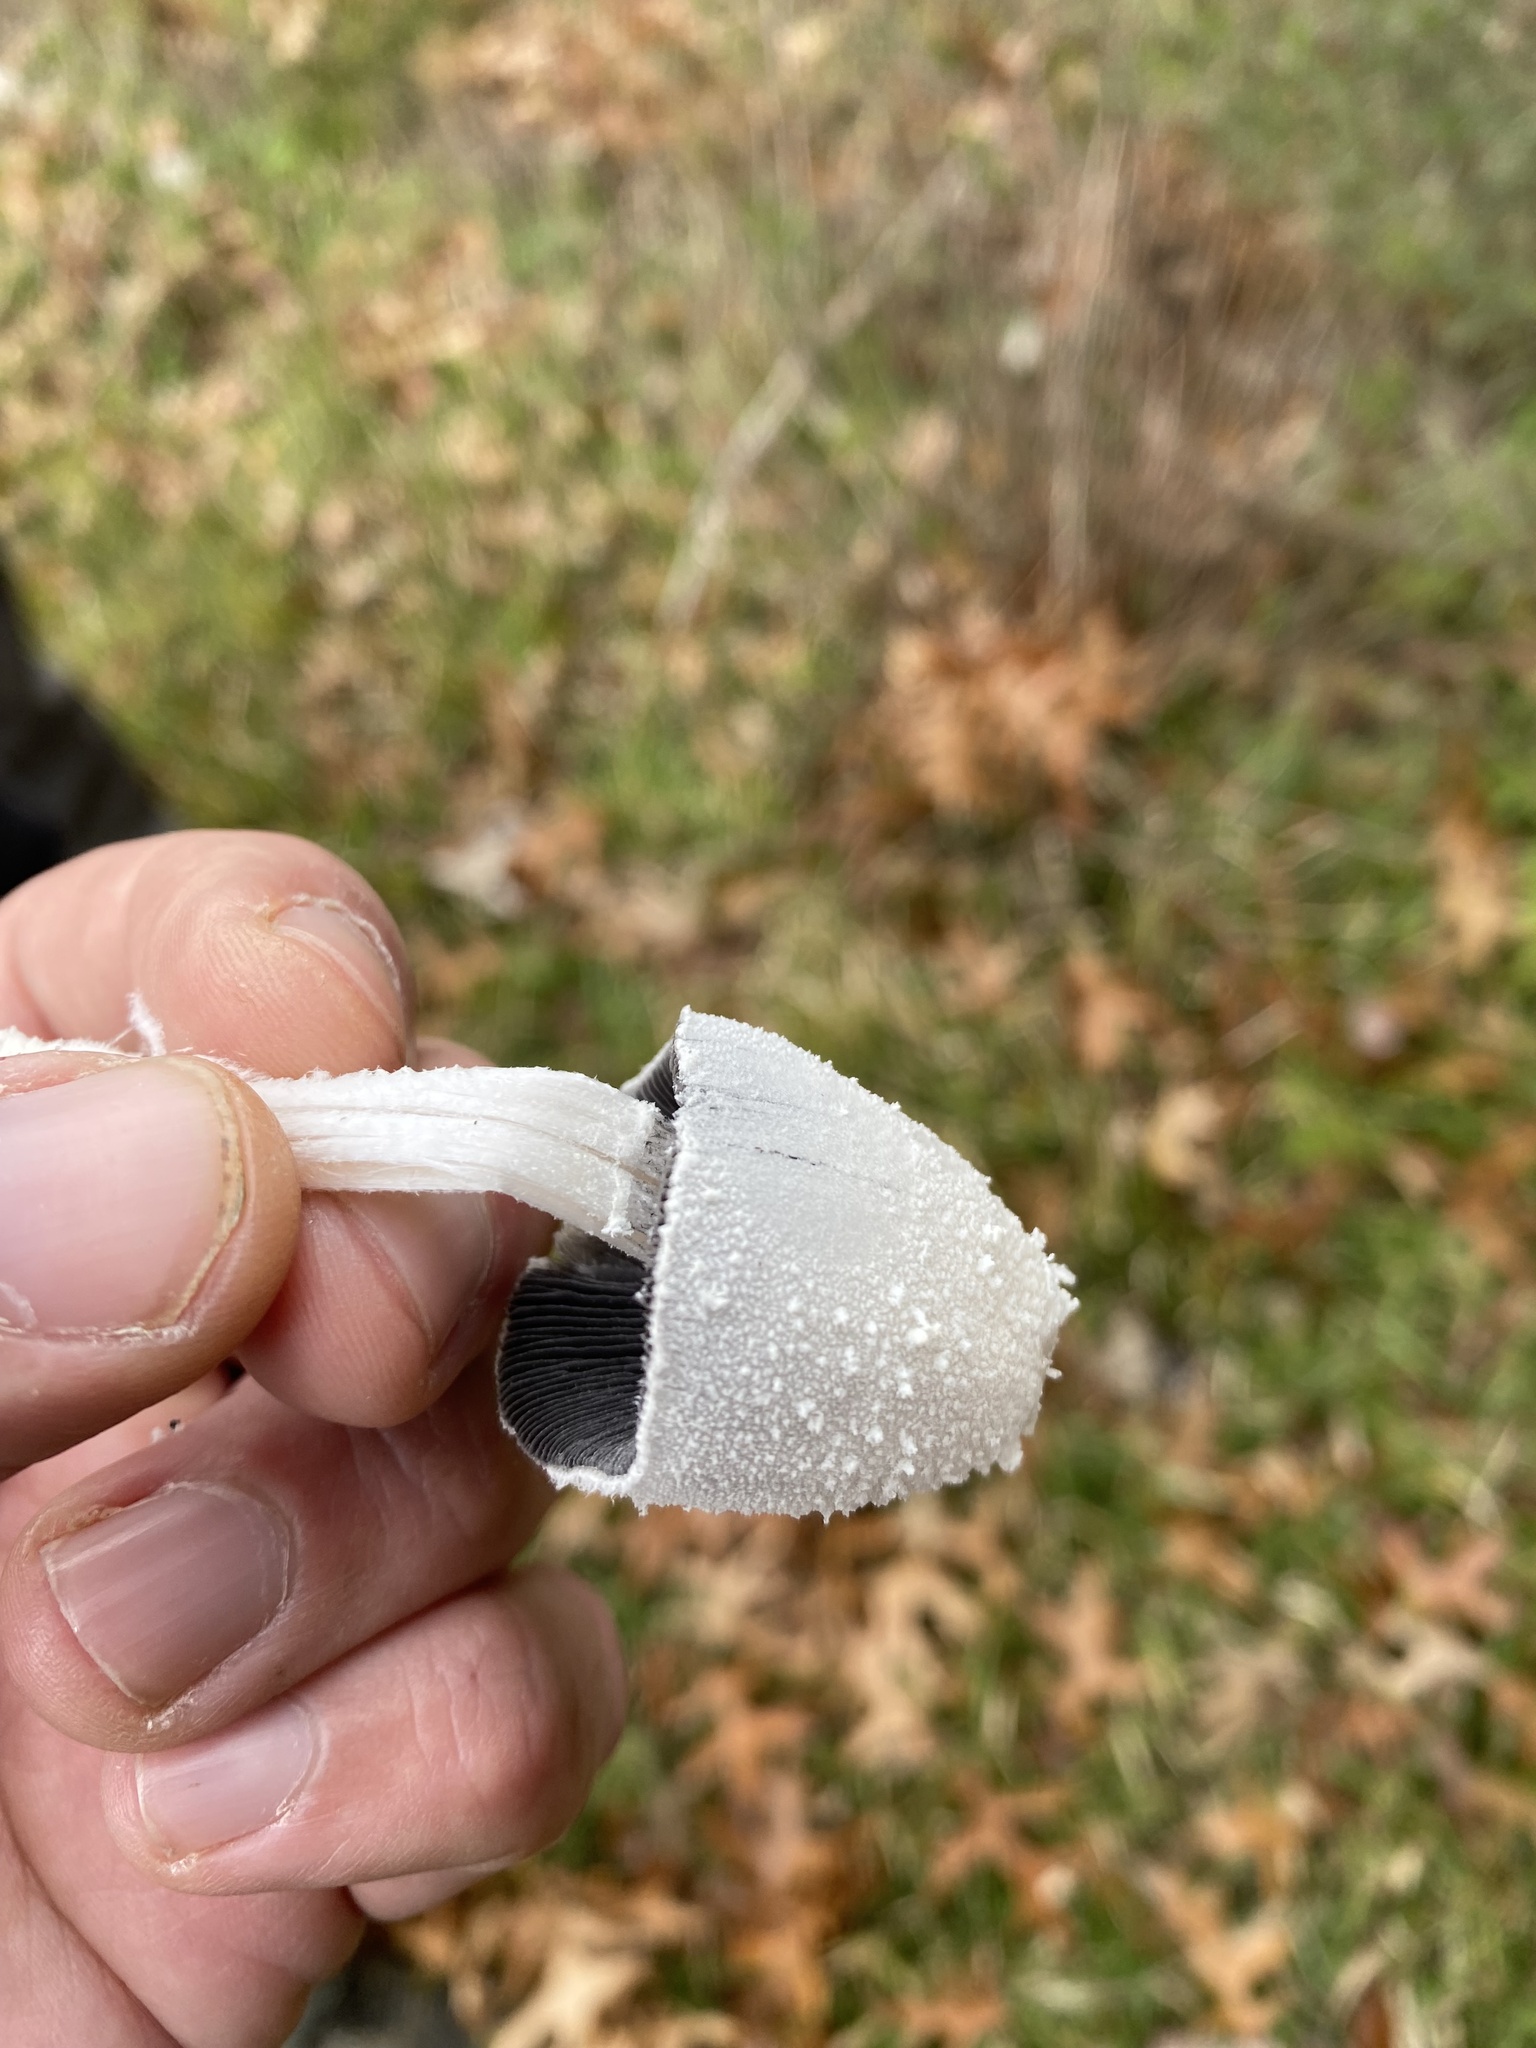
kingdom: Fungi
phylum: Basidiomycota
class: Agaricomycetes
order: Agaricales
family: Psathyrellaceae
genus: Coprinopsis
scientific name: Coprinopsis nivea
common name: Snowy inkcap
